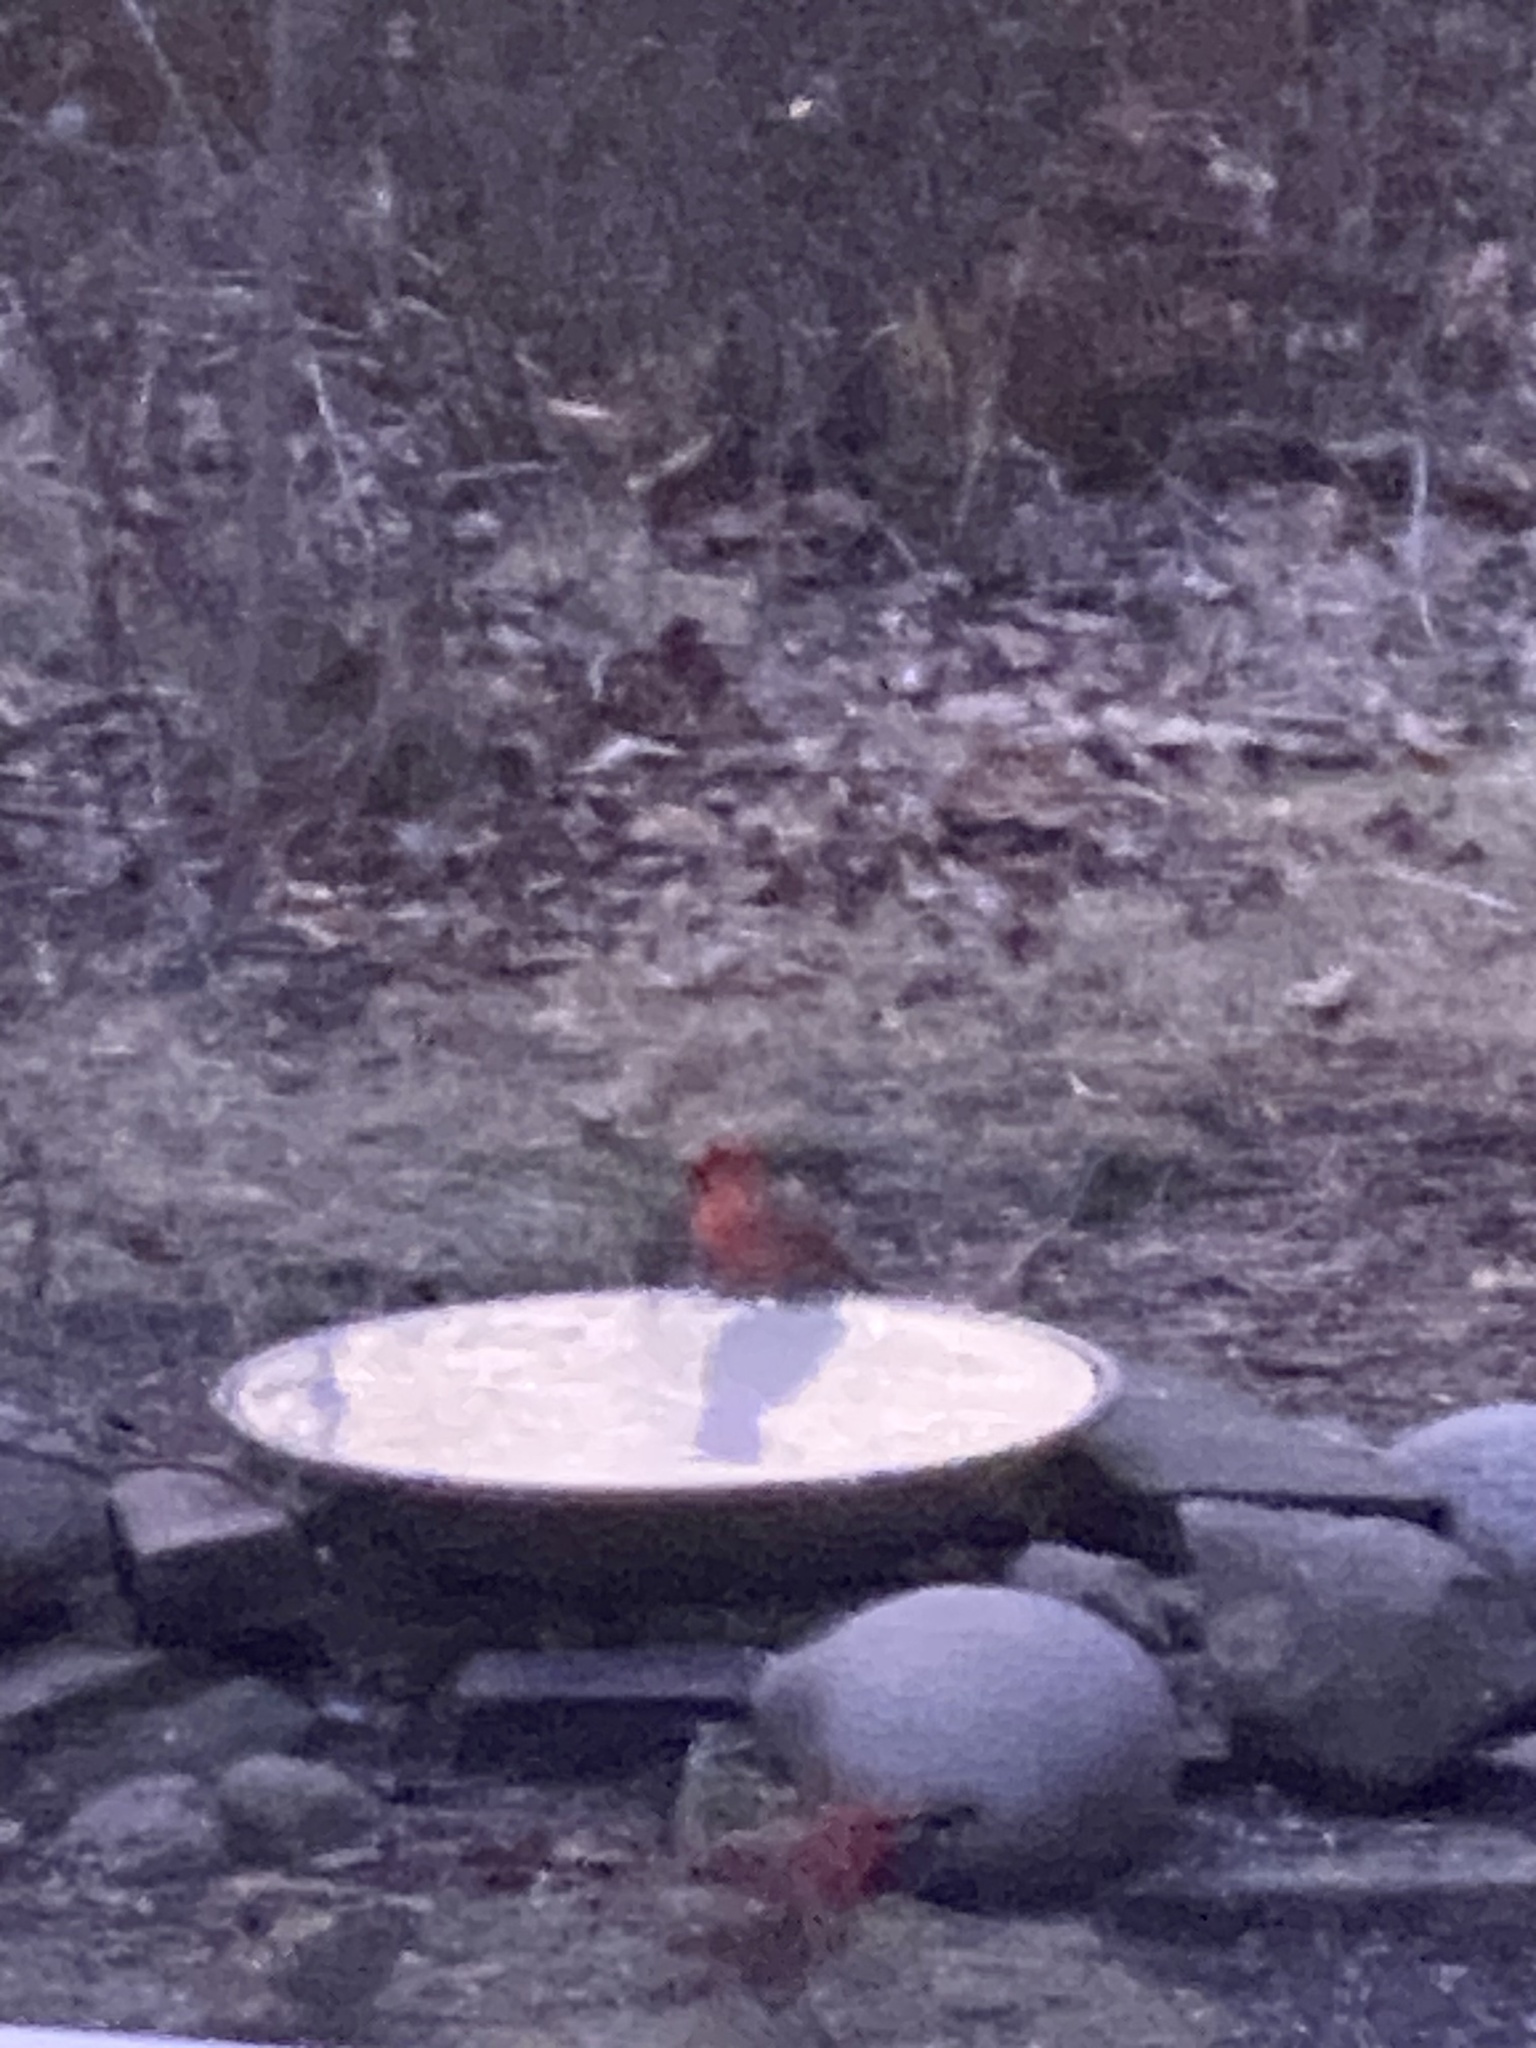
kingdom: Animalia
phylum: Chordata
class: Aves
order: Passeriformes
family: Cardinalidae
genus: Cardinalis
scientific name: Cardinalis cardinalis
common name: Northern cardinal
